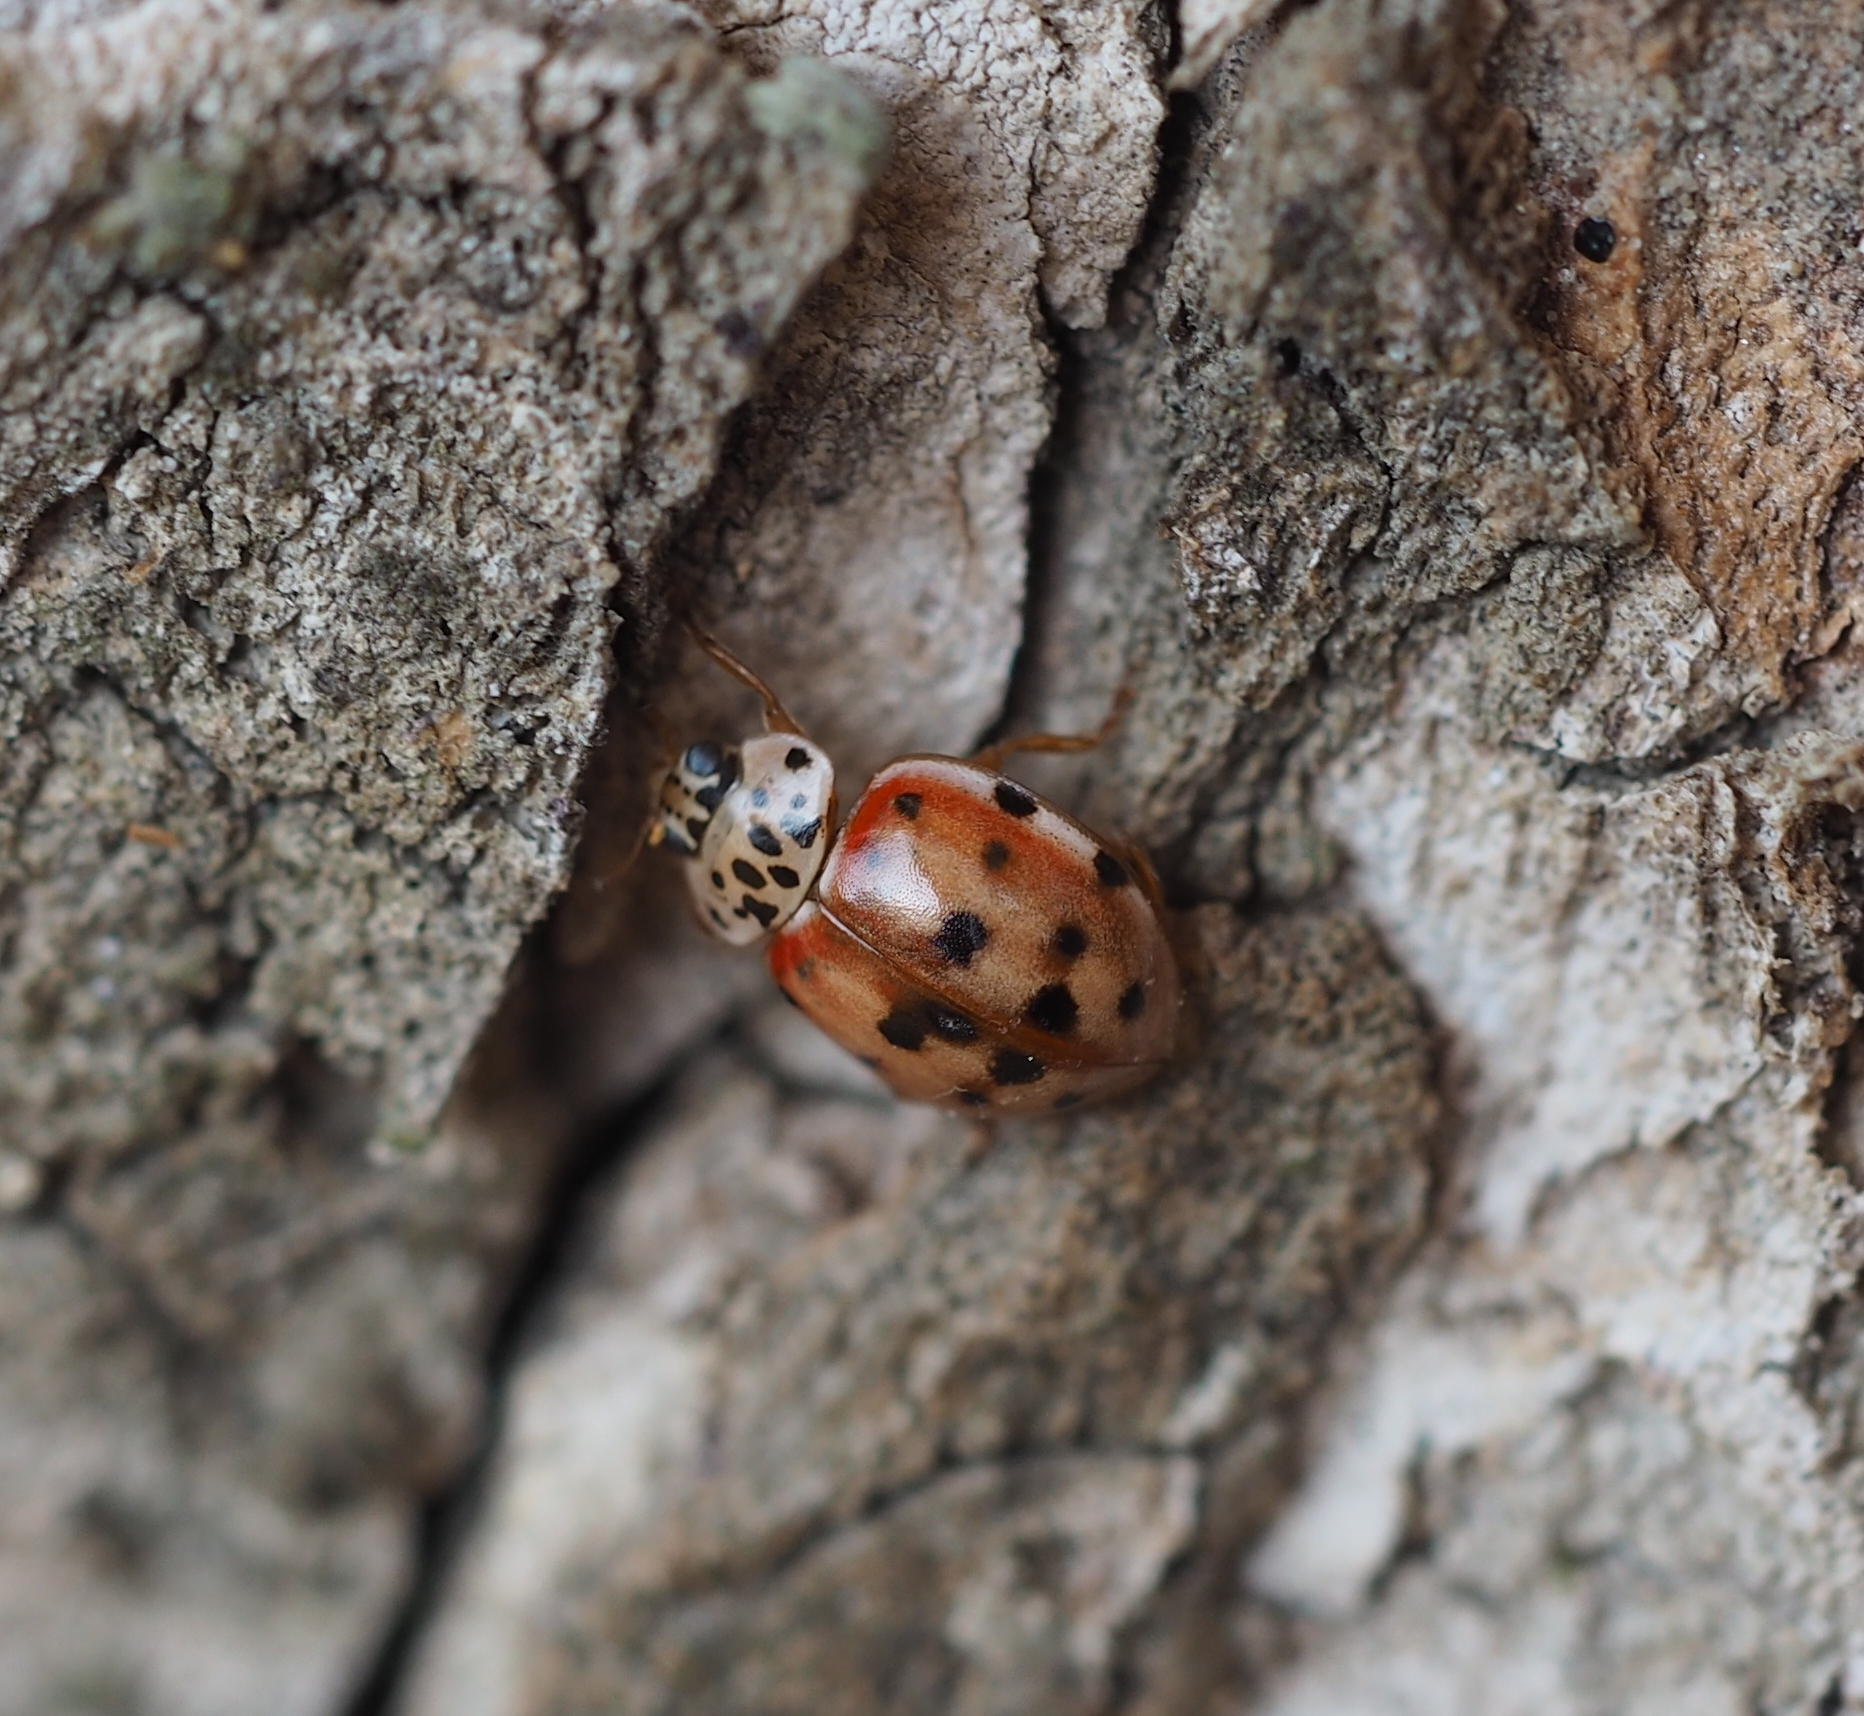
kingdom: Animalia
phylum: Arthropoda
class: Insecta
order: Coleoptera
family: Coccinellidae
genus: Harmonia
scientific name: Harmonia quadripunctata
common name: Cream-streaked ladybird
